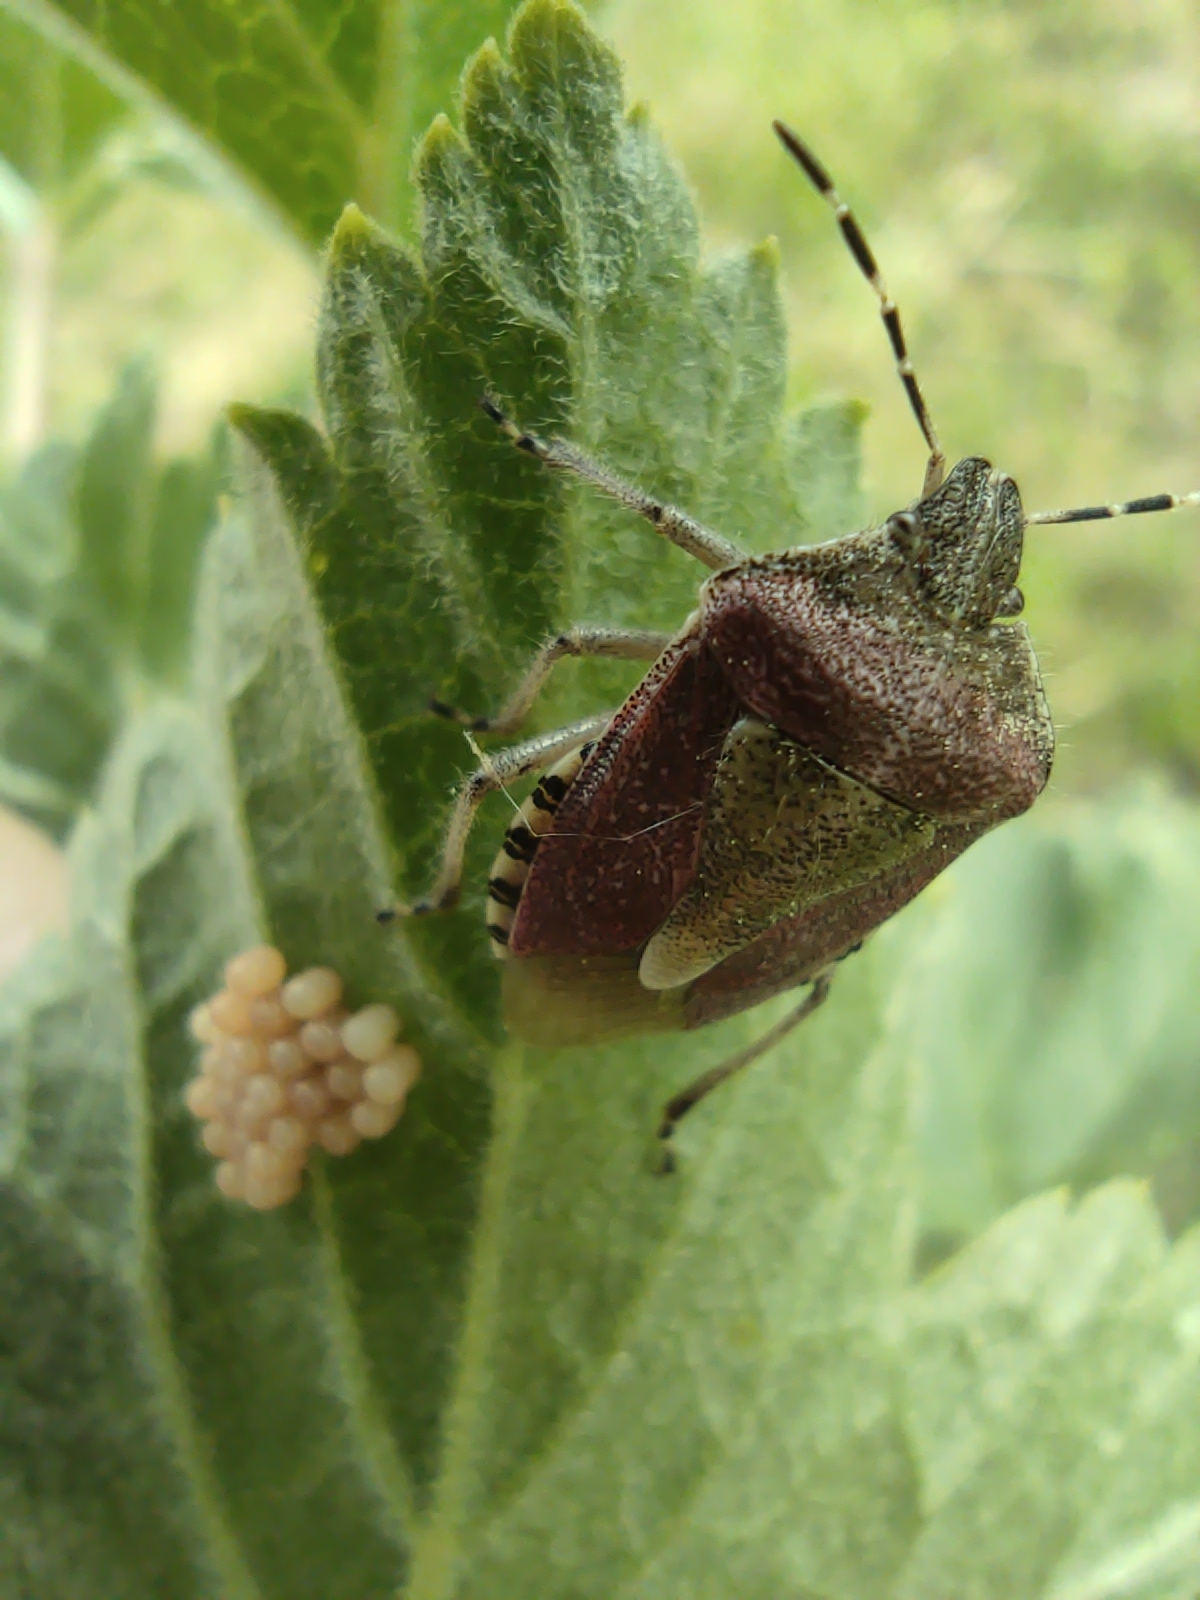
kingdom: Animalia
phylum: Arthropoda
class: Insecta
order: Hemiptera
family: Pentatomidae
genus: Dolycoris
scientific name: Dolycoris baccarum
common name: Sloe bug
